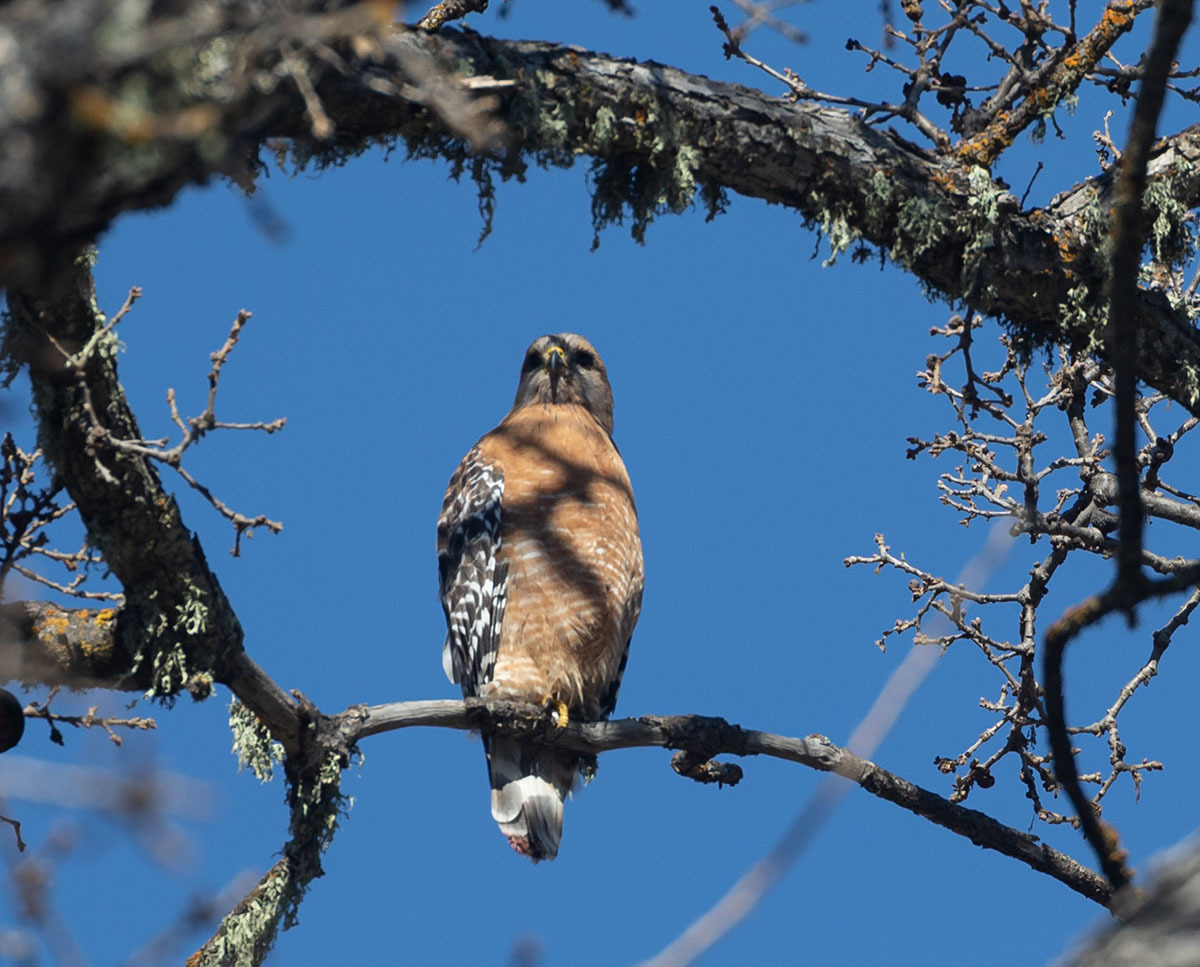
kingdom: Animalia
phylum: Chordata
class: Aves
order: Accipitriformes
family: Accipitridae
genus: Buteo
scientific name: Buteo lineatus
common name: Red-shouldered hawk
